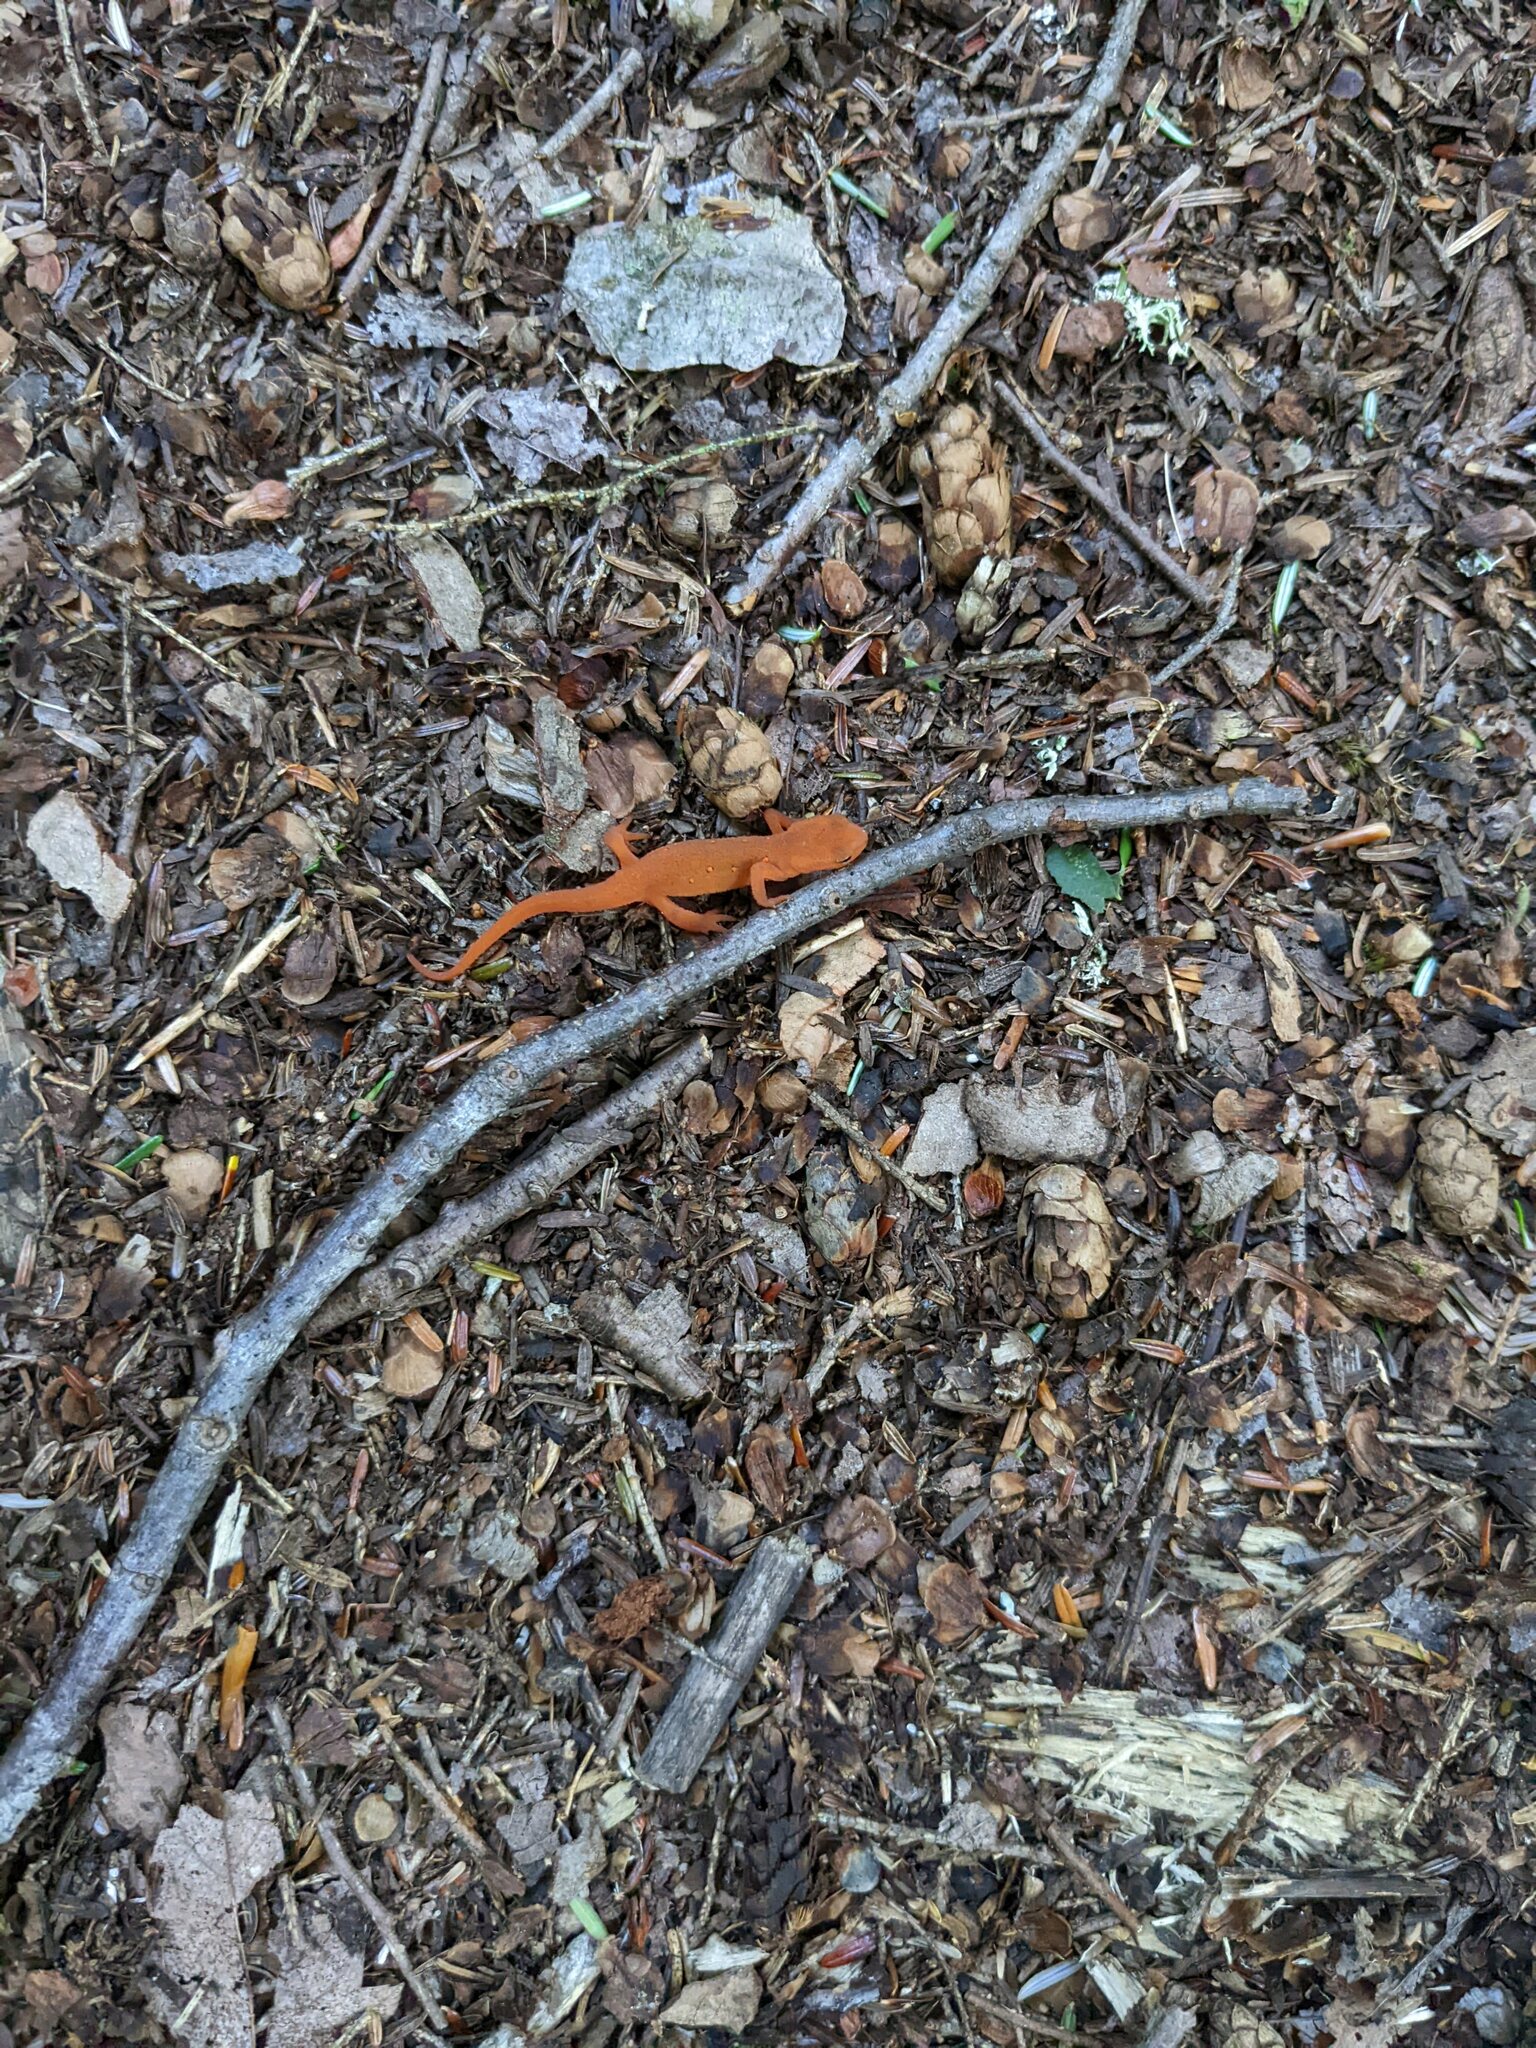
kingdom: Animalia
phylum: Chordata
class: Amphibia
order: Caudata
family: Salamandridae
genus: Notophthalmus
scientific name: Notophthalmus viridescens
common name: Eastern newt
